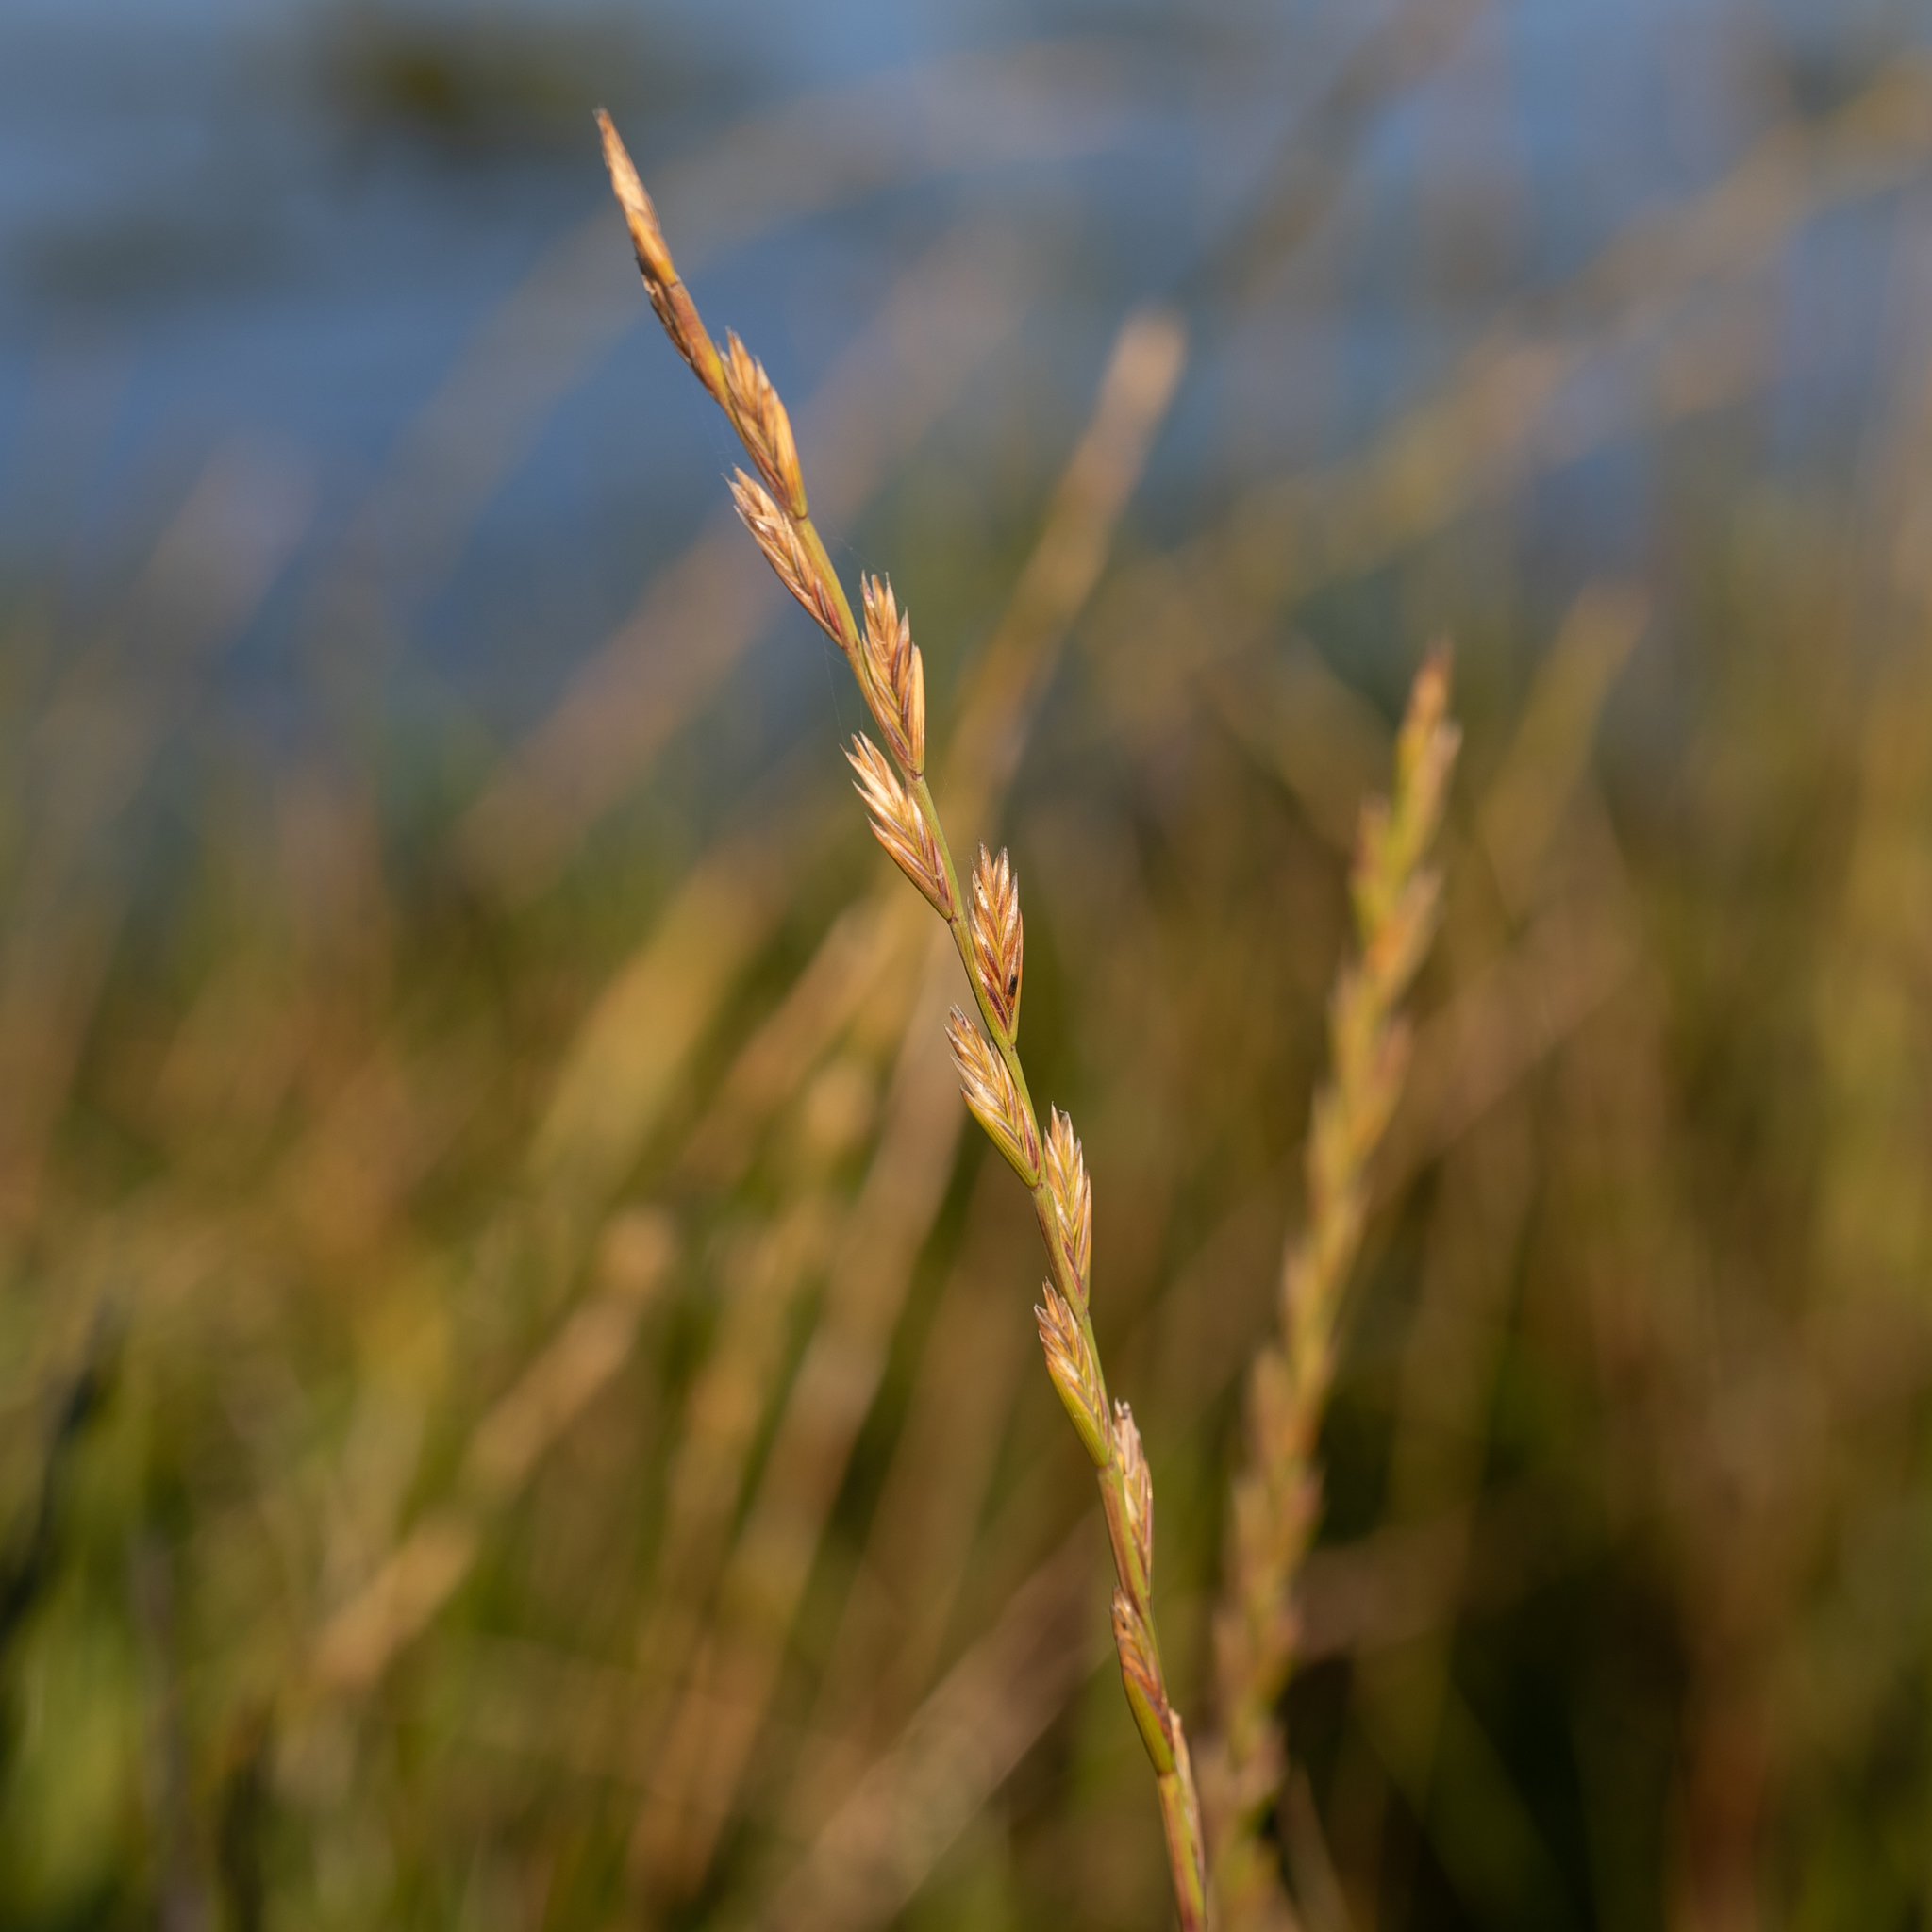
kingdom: Plantae
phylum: Tracheophyta
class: Liliopsida
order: Poales
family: Poaceae
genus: Lolium
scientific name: Lolium perenne
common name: Perennial ryegrass
